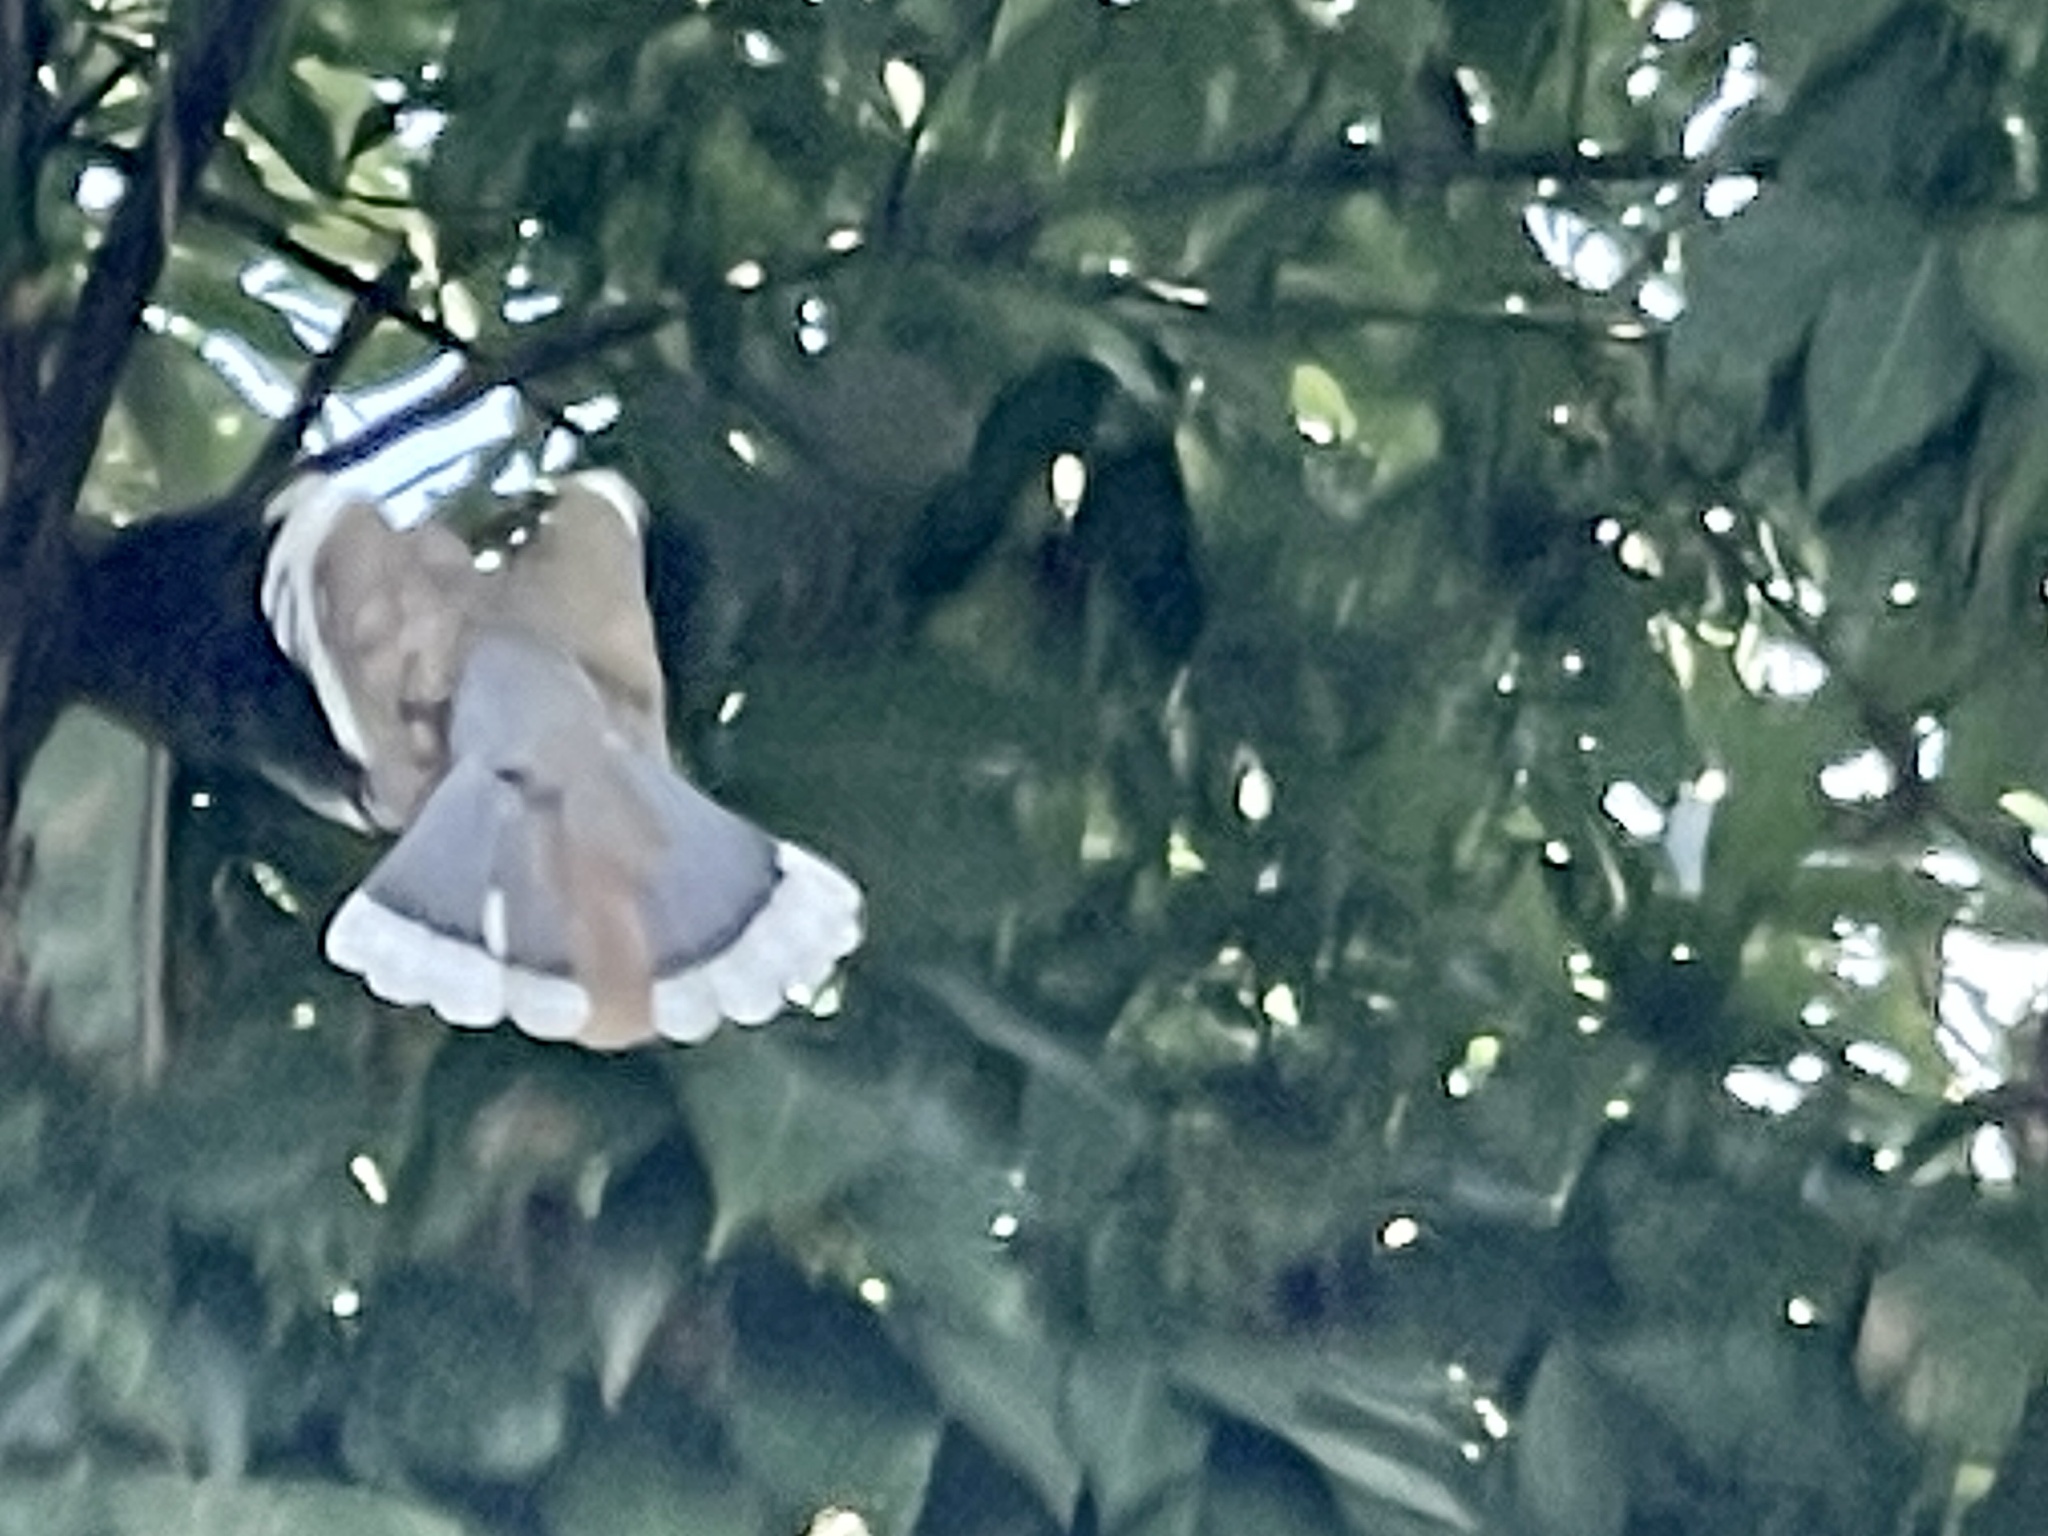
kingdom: Animalia
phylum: Chordata
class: Aves
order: Columbiformes
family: Columbidae
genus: Zenaida
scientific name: Zenaida asiatica
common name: White-winged dove
